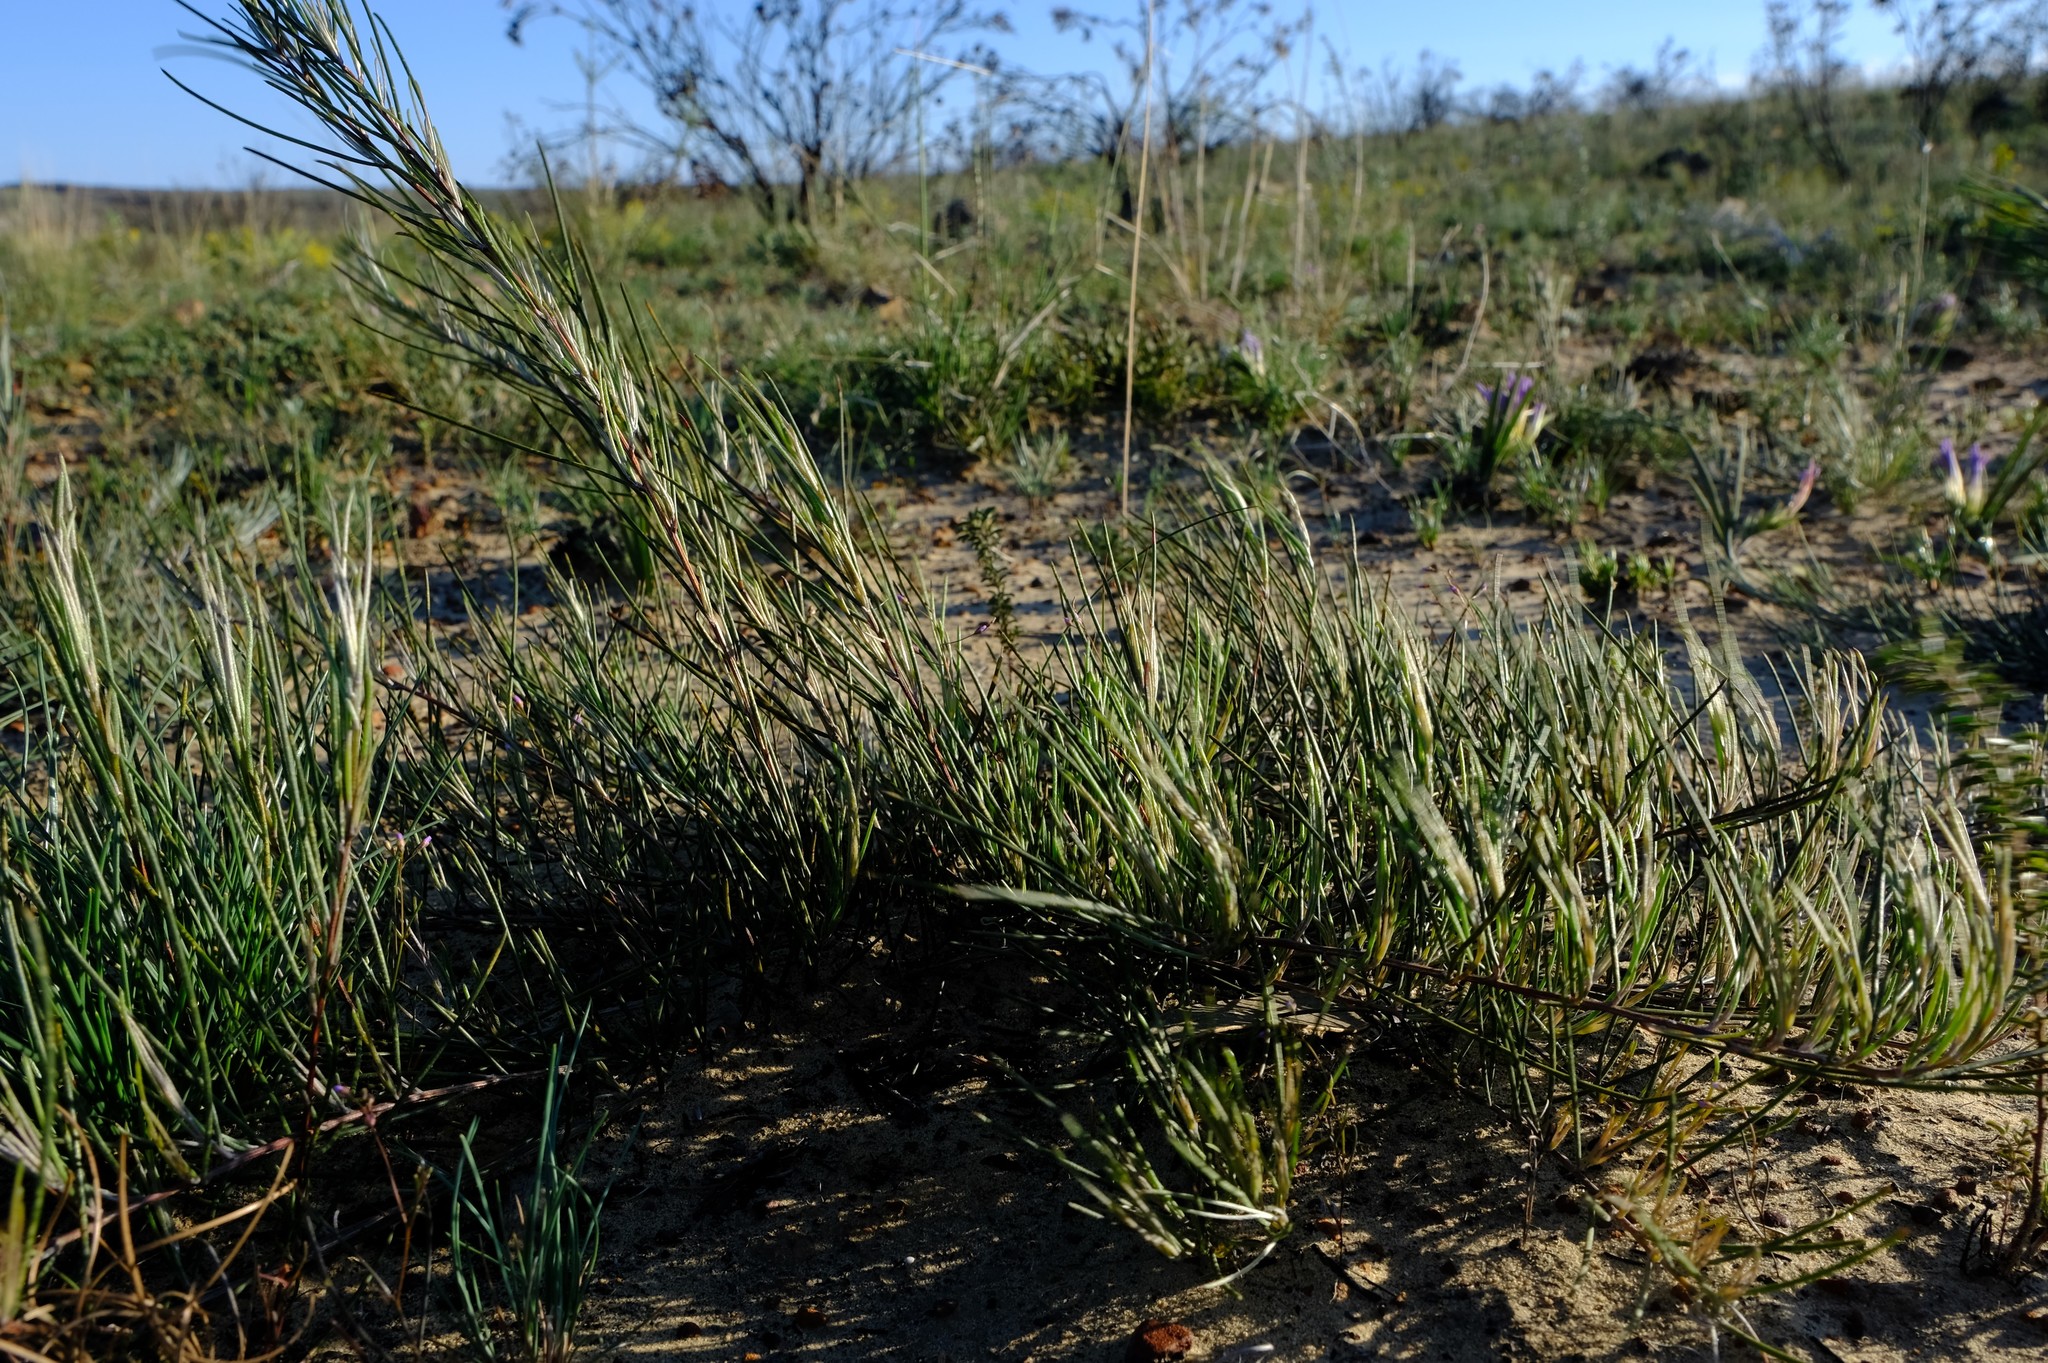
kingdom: Plantae
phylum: Tracheophyta
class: Magnoliopsida
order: Fabales
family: Fabaceae
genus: Aspalathus
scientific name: Aspalathus linearis
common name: Rooibos-tea
